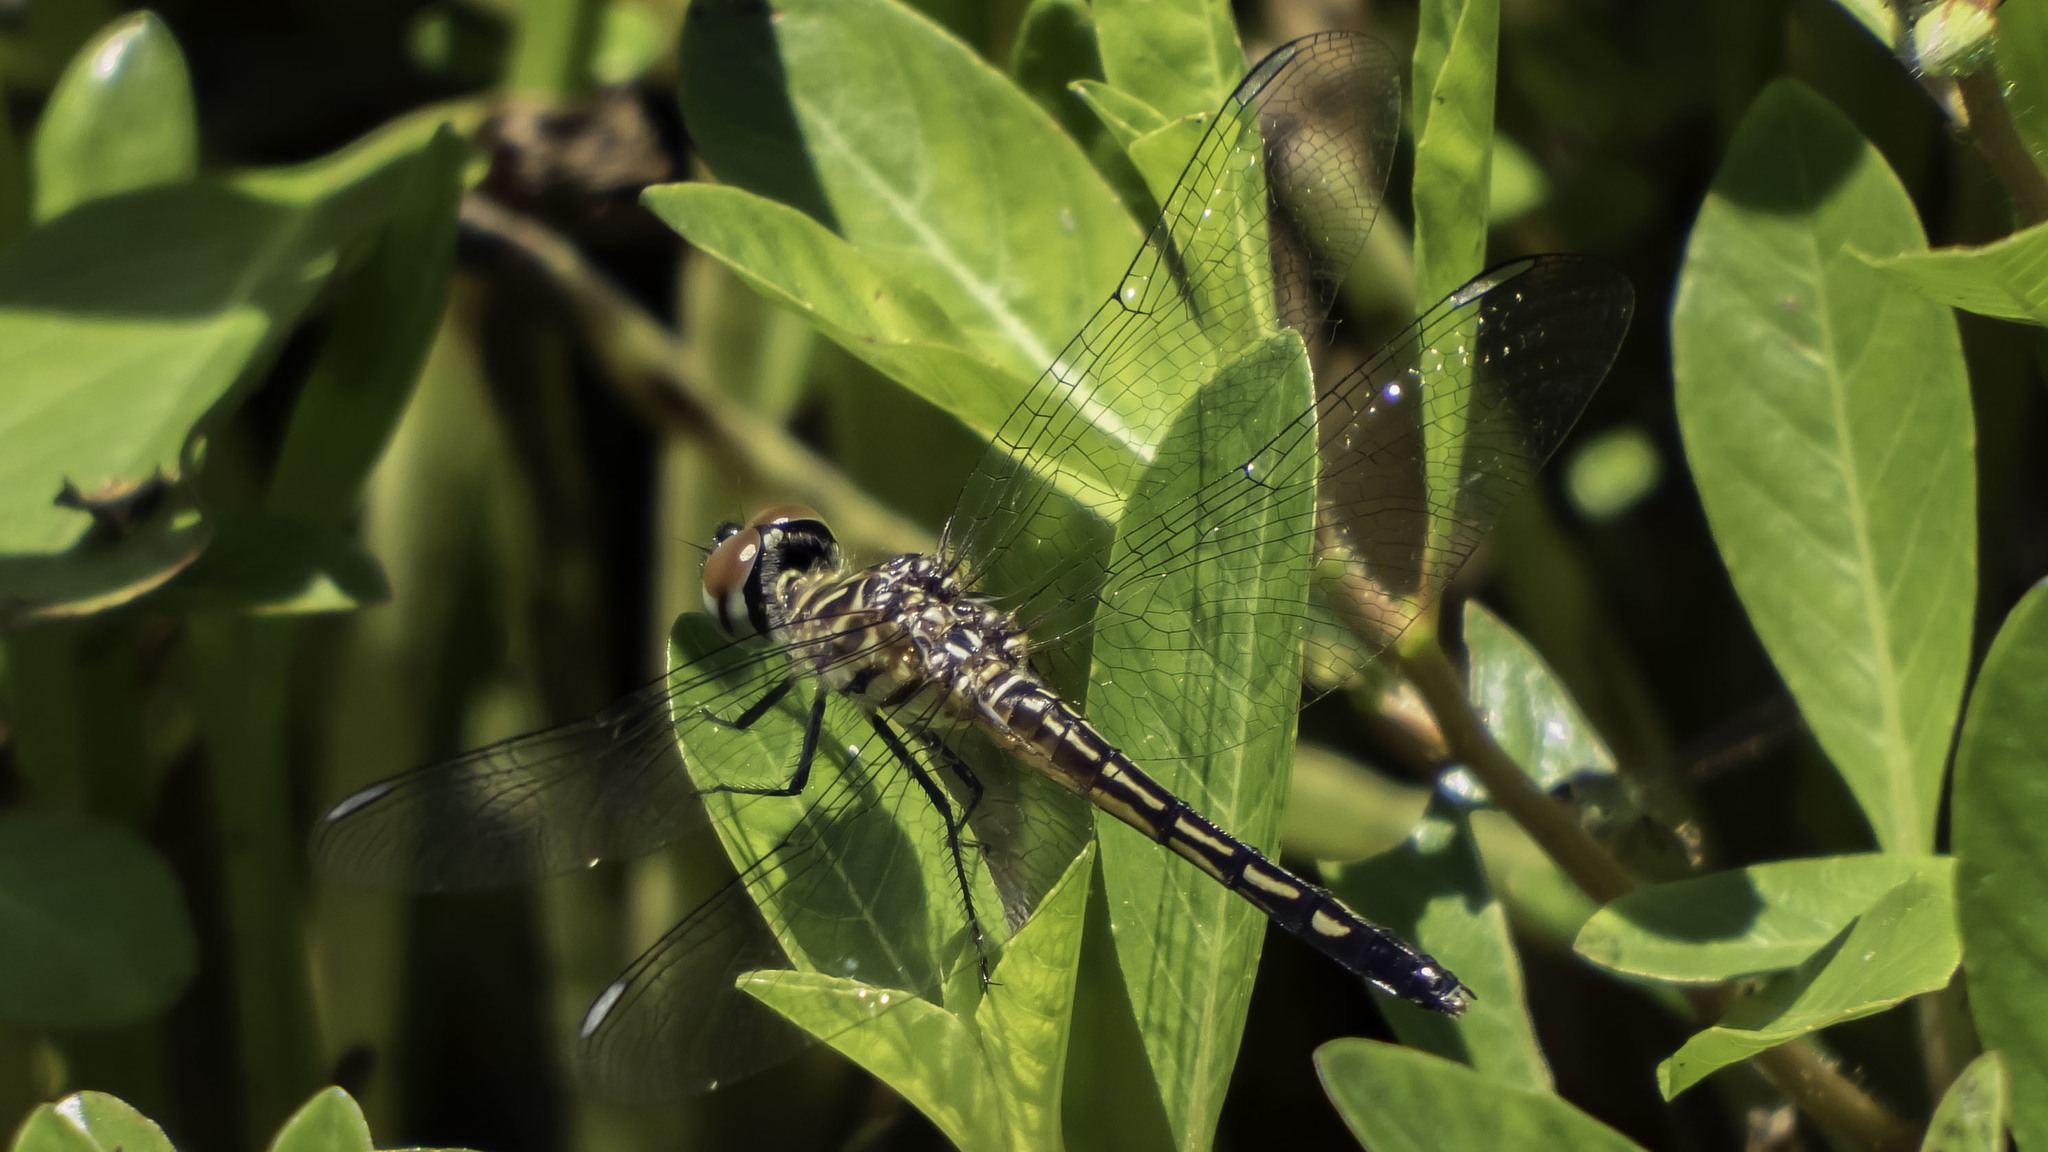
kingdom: Animalia
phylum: Arthropoda
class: Insecta
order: Odonata
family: Libellulidae
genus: Pachydiplax
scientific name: Pachydiplax longipennis
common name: Blue dasher
